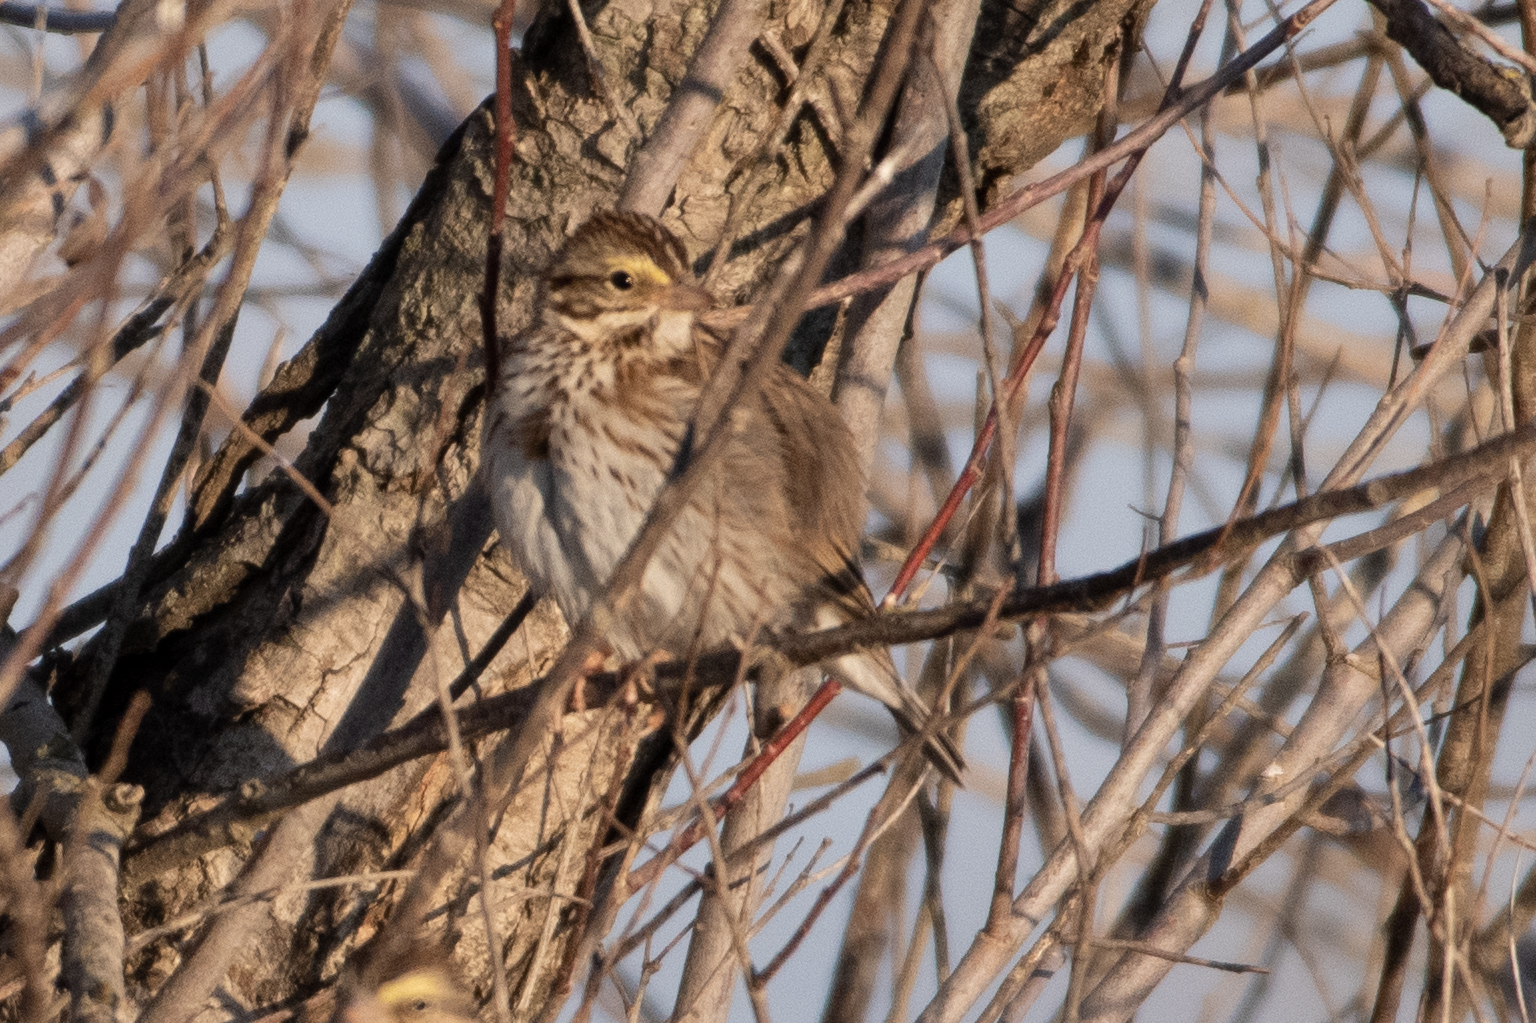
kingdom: Animalia
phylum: Chordata
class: Aves
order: Passeriformes
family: Passerellidae
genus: Passerculus
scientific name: Passerculus sandwichensis
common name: Savannah sparrow
